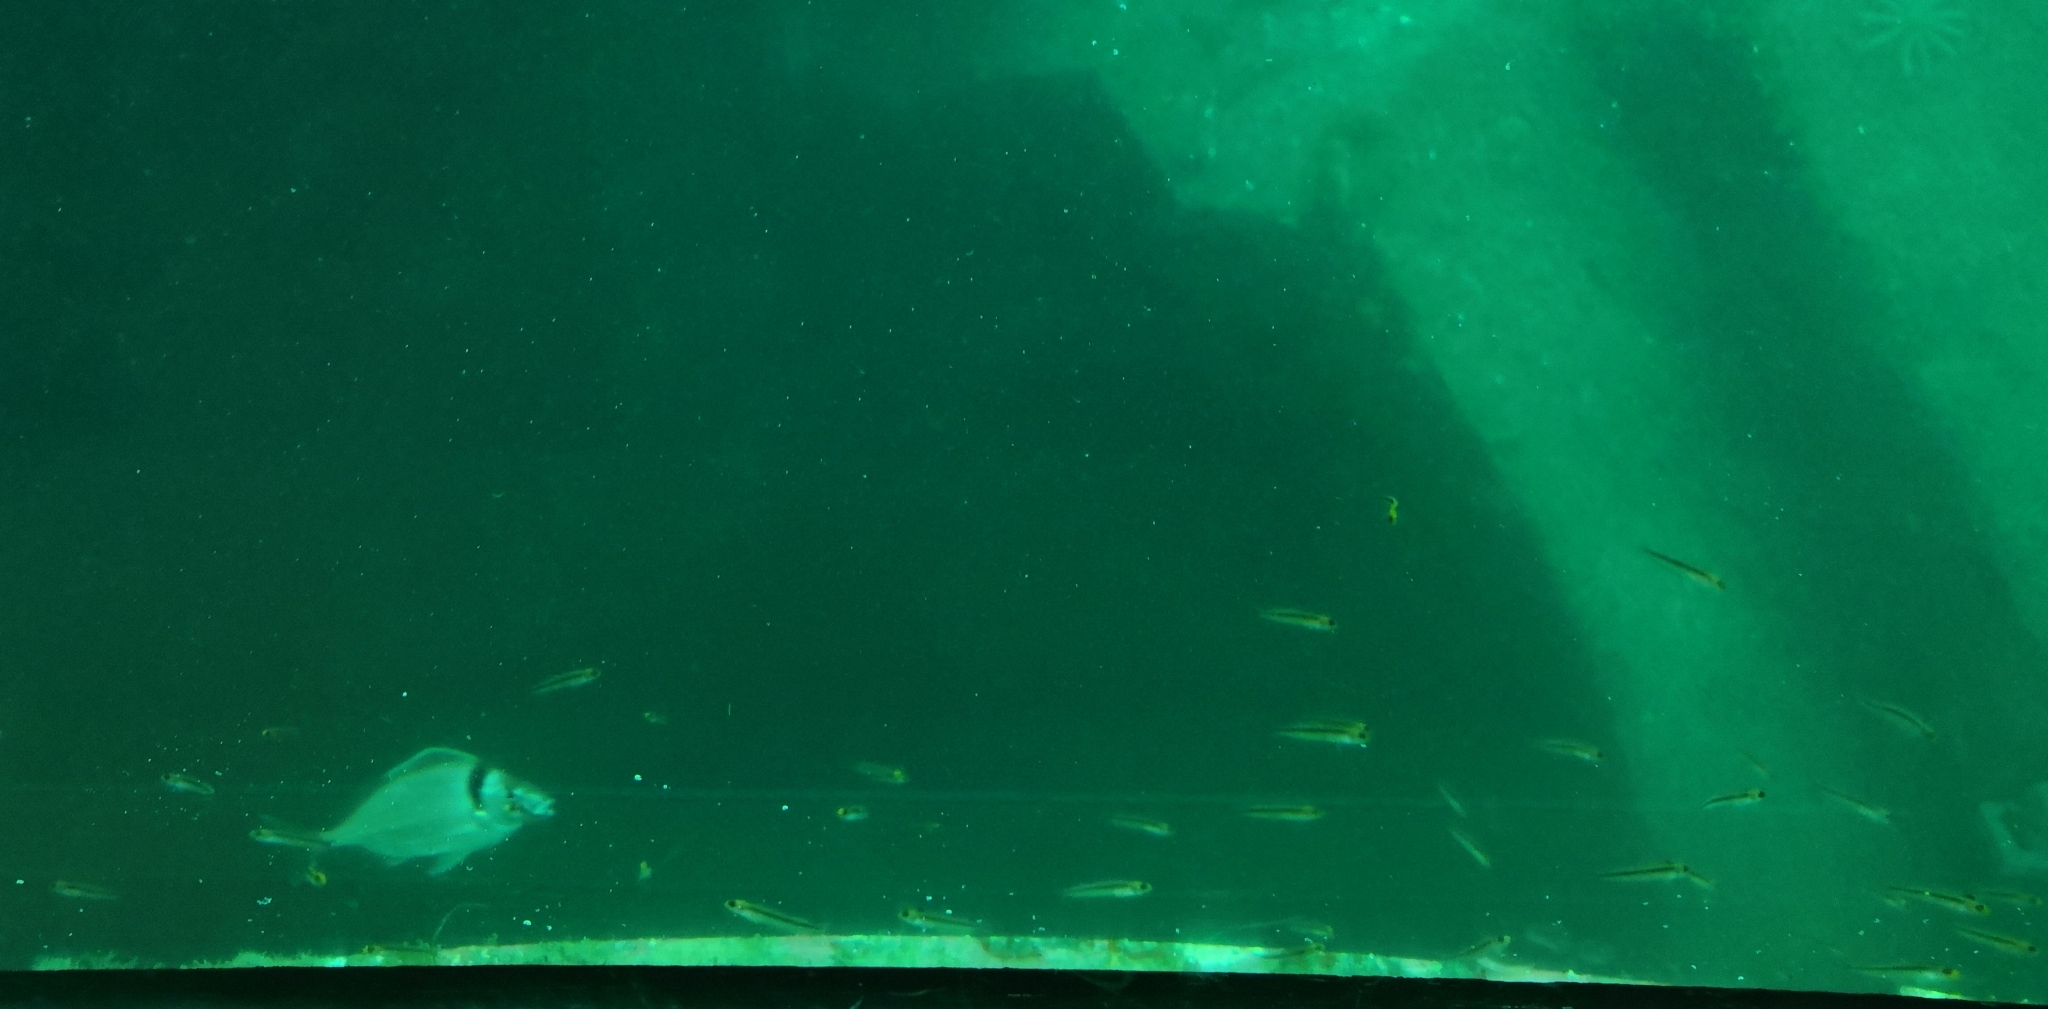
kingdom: Animalia
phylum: Chordata
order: Perciformes
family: Cheilodactylidae
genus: Nemadactylus
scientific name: Nemadactylus macropterus
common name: Tarakihi
